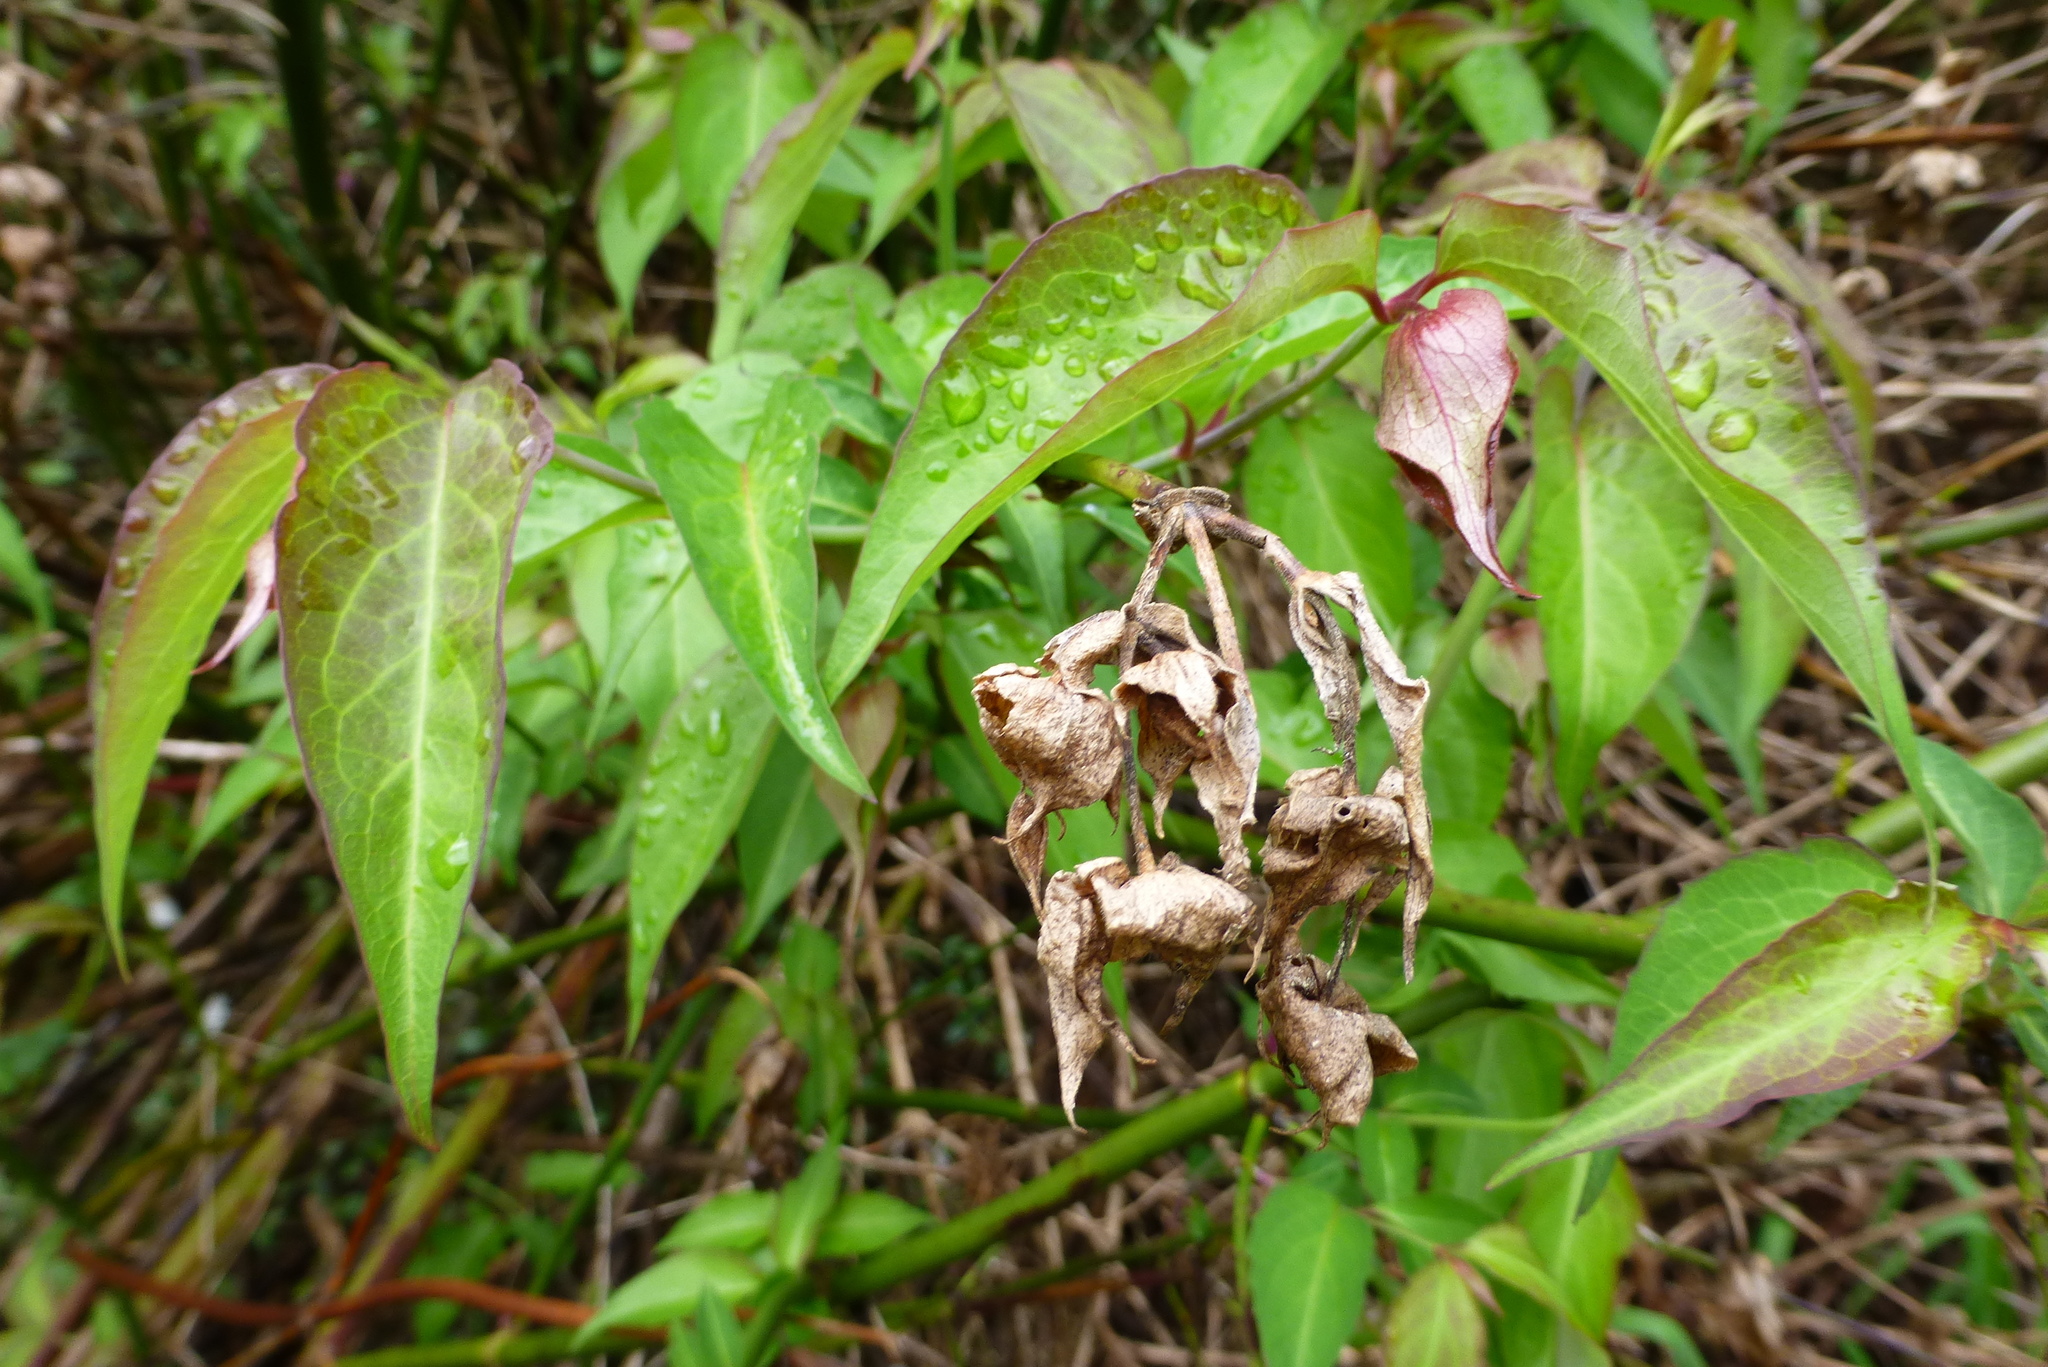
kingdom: Plantae
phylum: Tracheophyta
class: Magnoliopsida
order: Dipsacales
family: Caprifoliaceae
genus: Leycesteria
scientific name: Leycesteria formosa
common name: Himalayan honeysuckle
